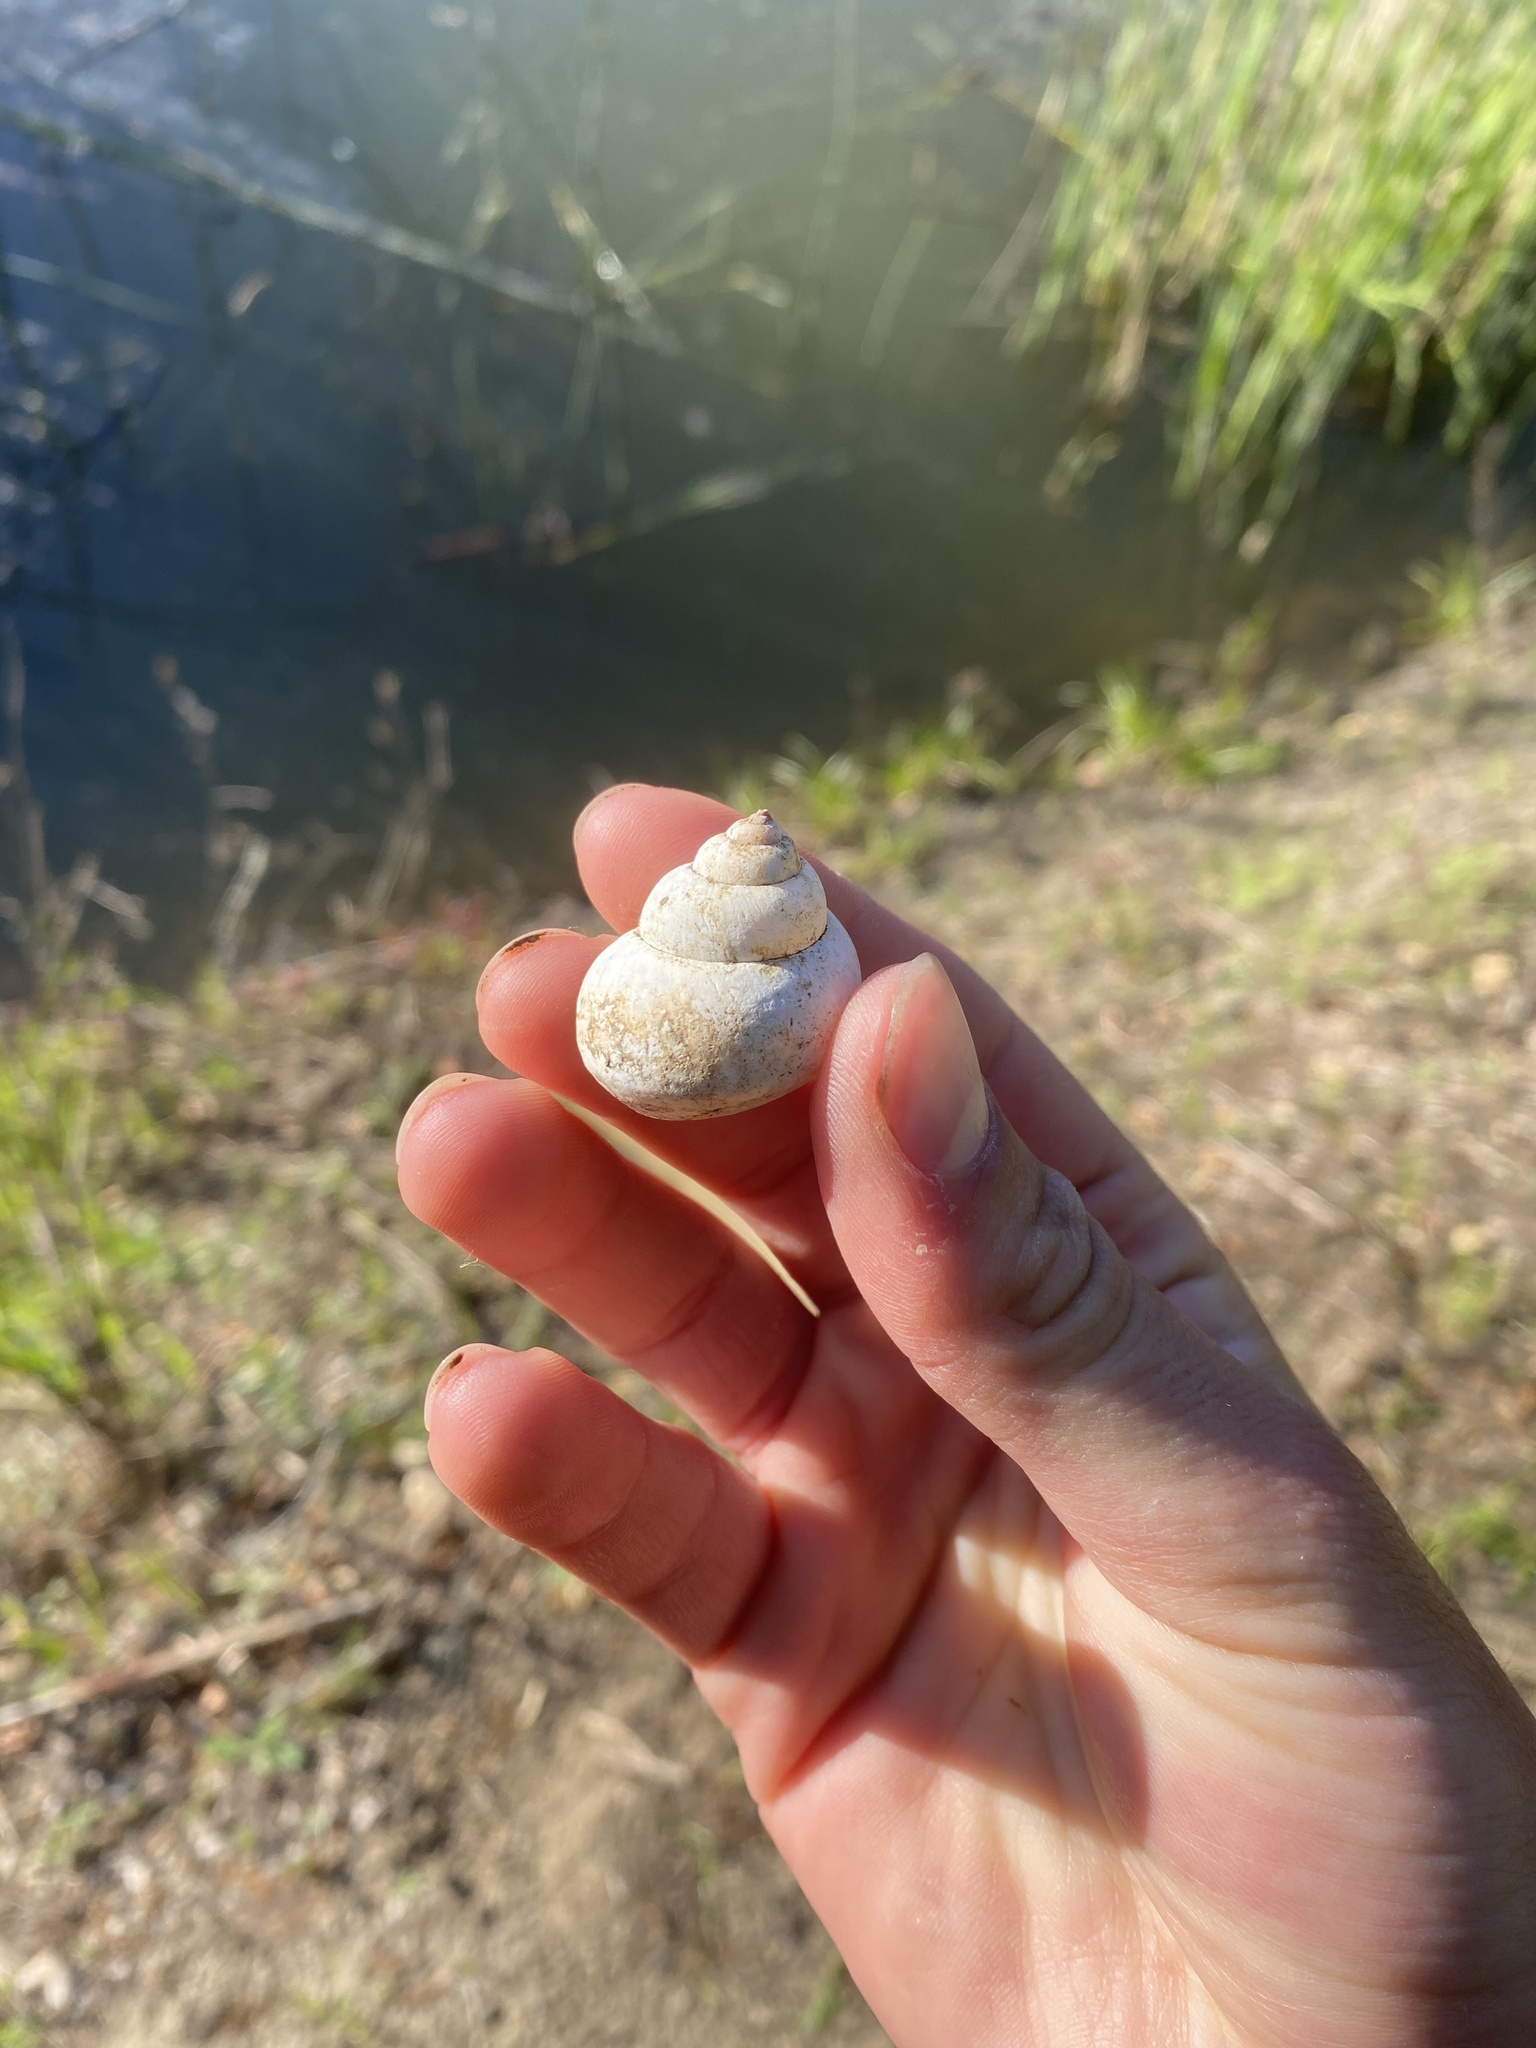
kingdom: Animalia
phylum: Mollusca
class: Gastropoda
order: Architaenioglossa
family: Viviparidae
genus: Cipangopaludina
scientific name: Cipangopaludina chinensis
